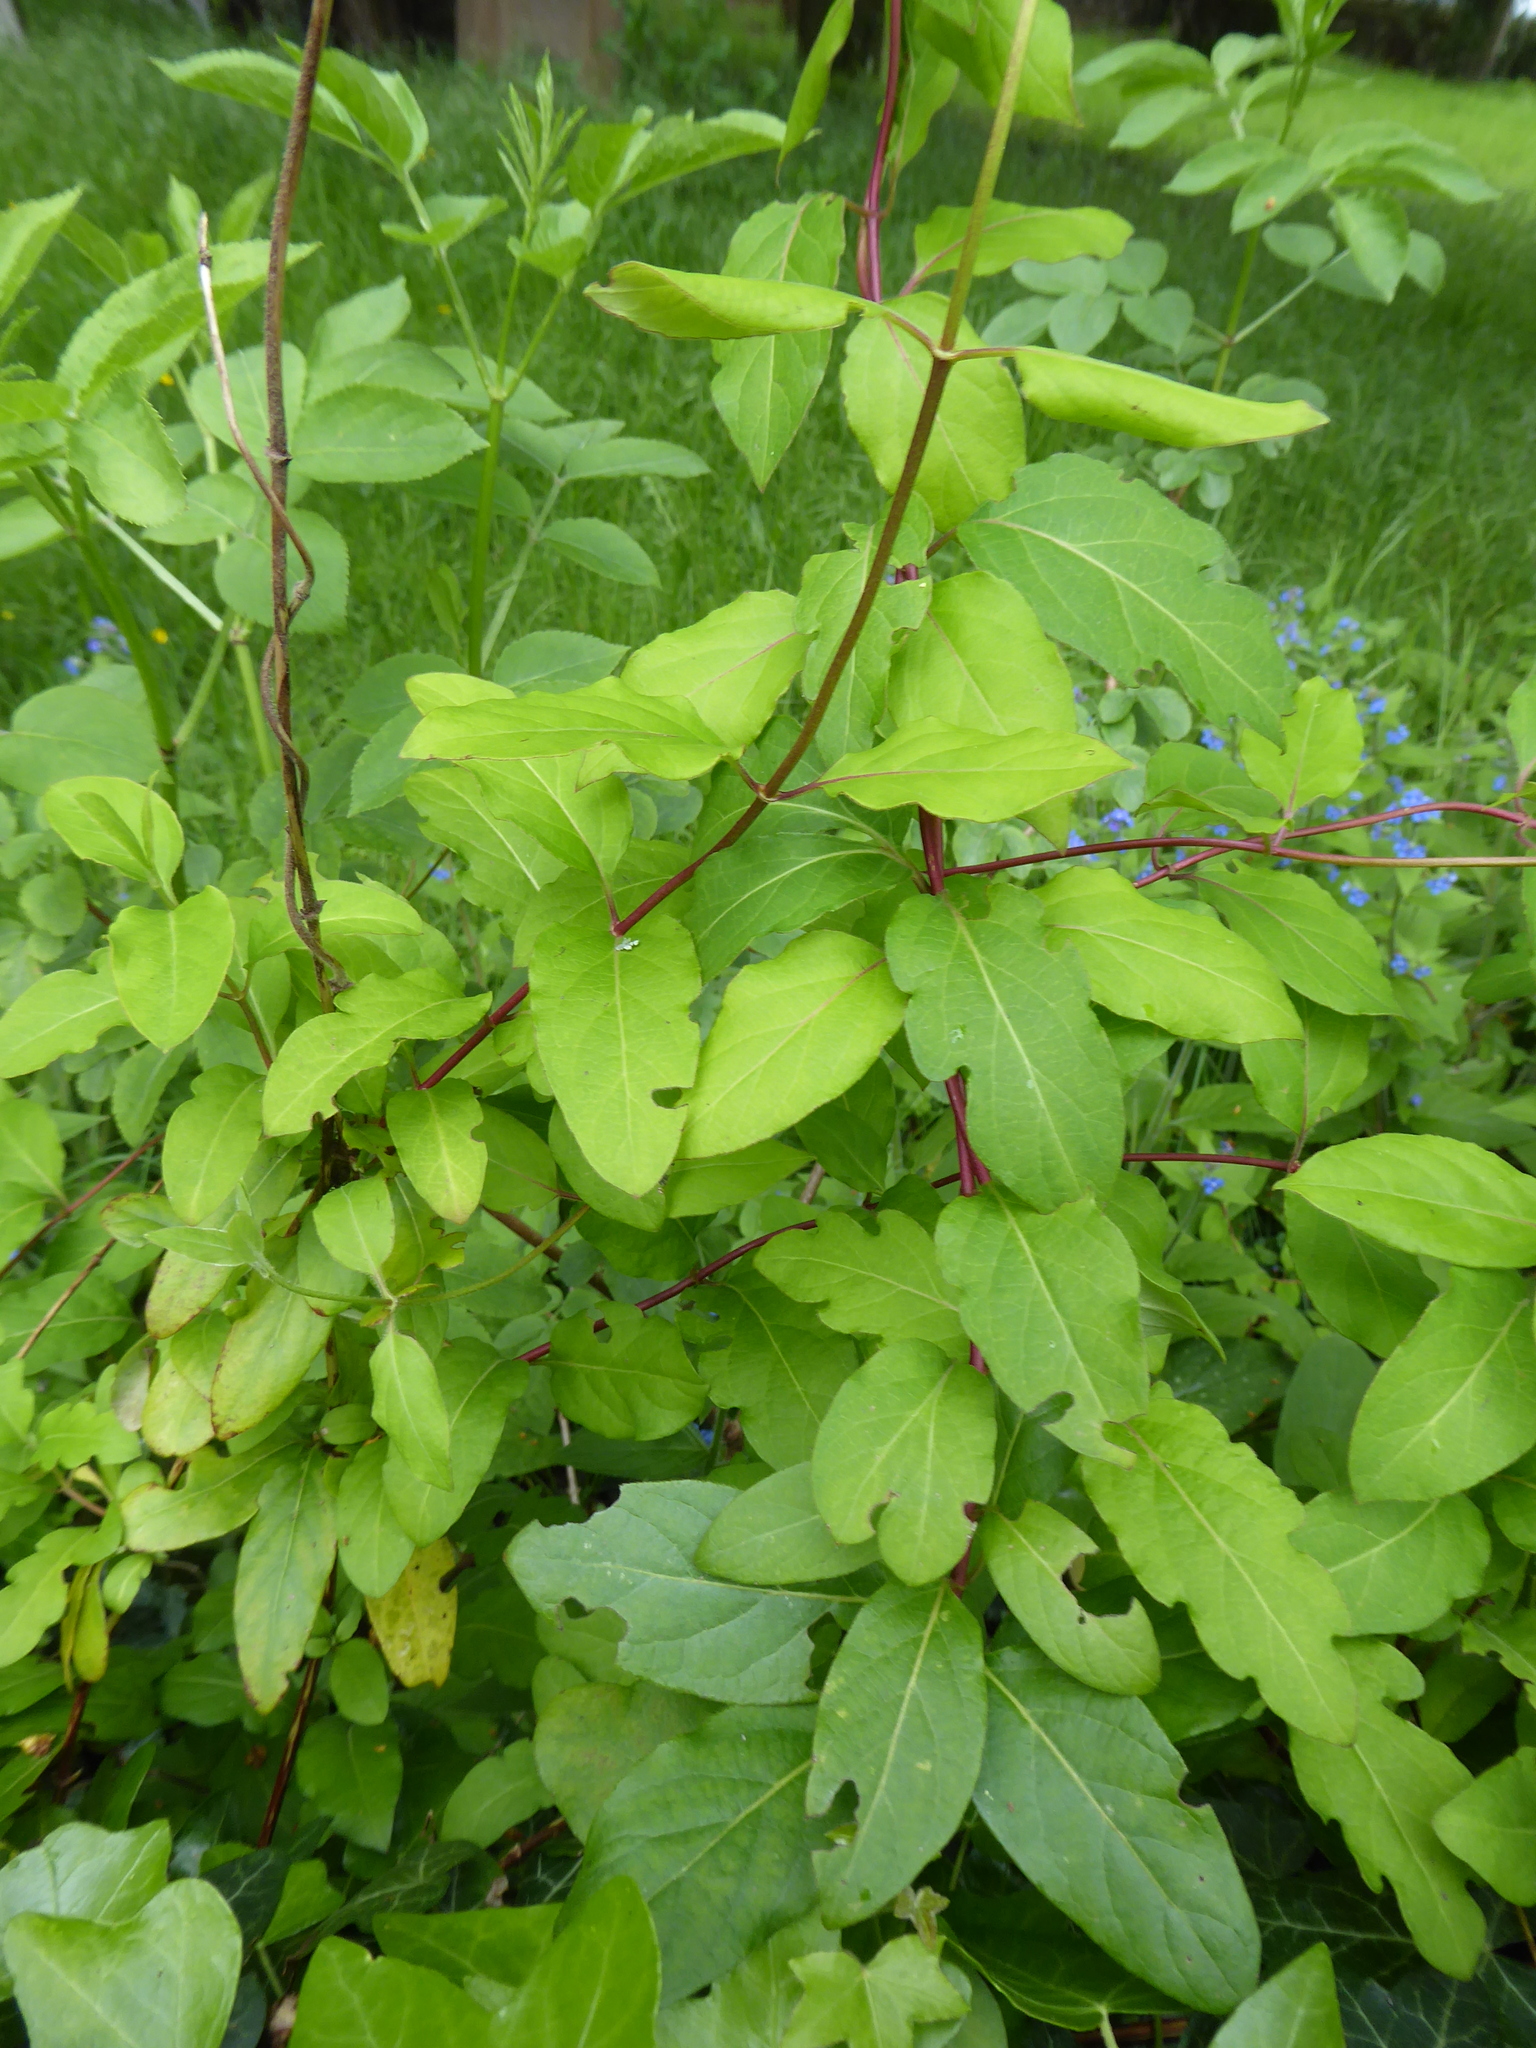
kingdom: Plantae
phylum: Tracheophyta
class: Magnoliopsida
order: Dipsacales
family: Caprifoliaceae
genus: Lonicera
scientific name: Lonicera japonica
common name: Japanese honeysuckle
